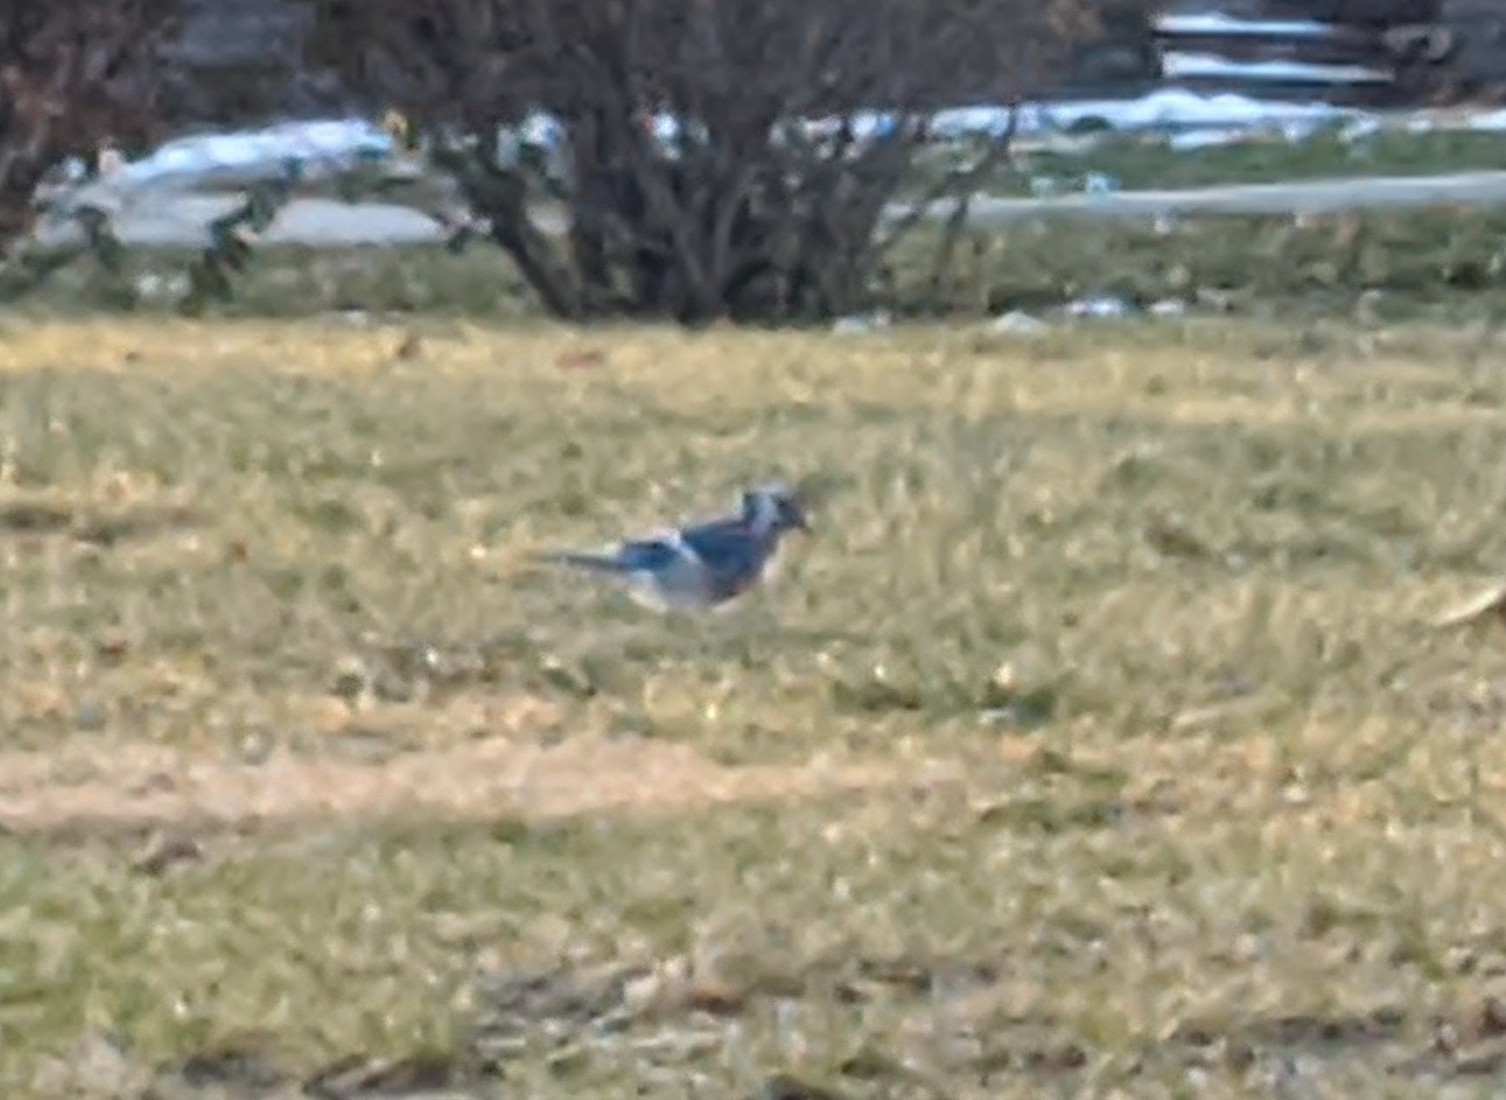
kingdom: Animalia
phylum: Chordata
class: Aves
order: Passeriformes
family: Corvidae
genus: Cyanocitta
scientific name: Cyanocitta cristata
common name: Blue jay
